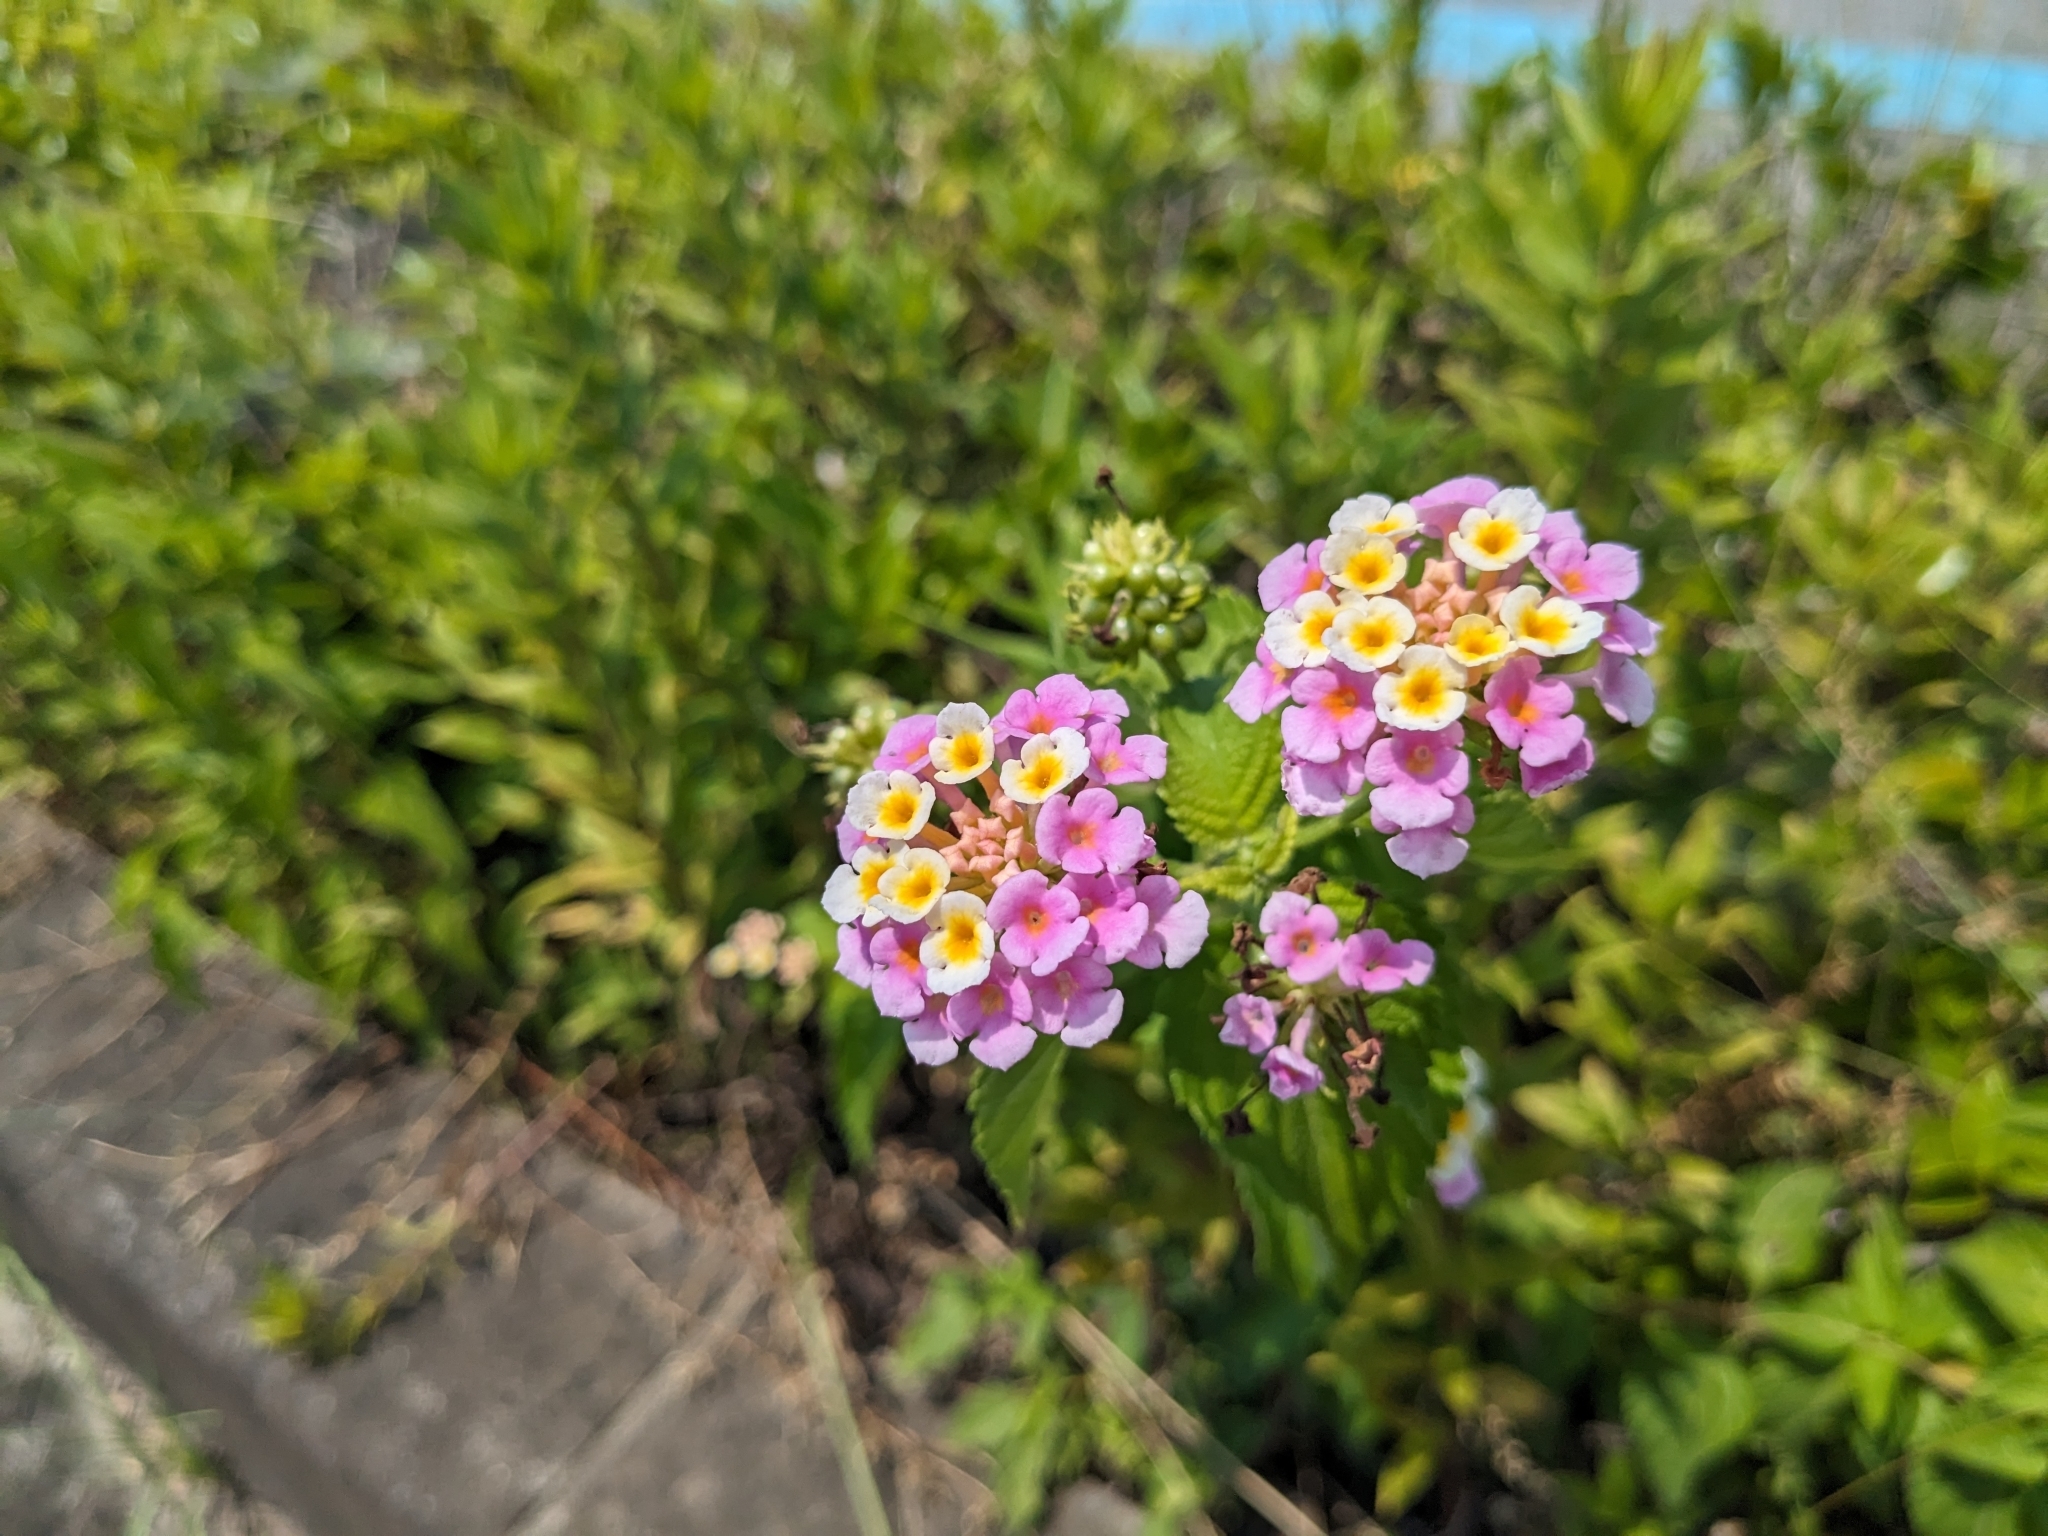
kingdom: Plantae
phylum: Tracheophyta
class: Magnoliopsida
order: Lamiales
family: Verbenaceae
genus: Lantana
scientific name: Lantana camara
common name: Lantana
